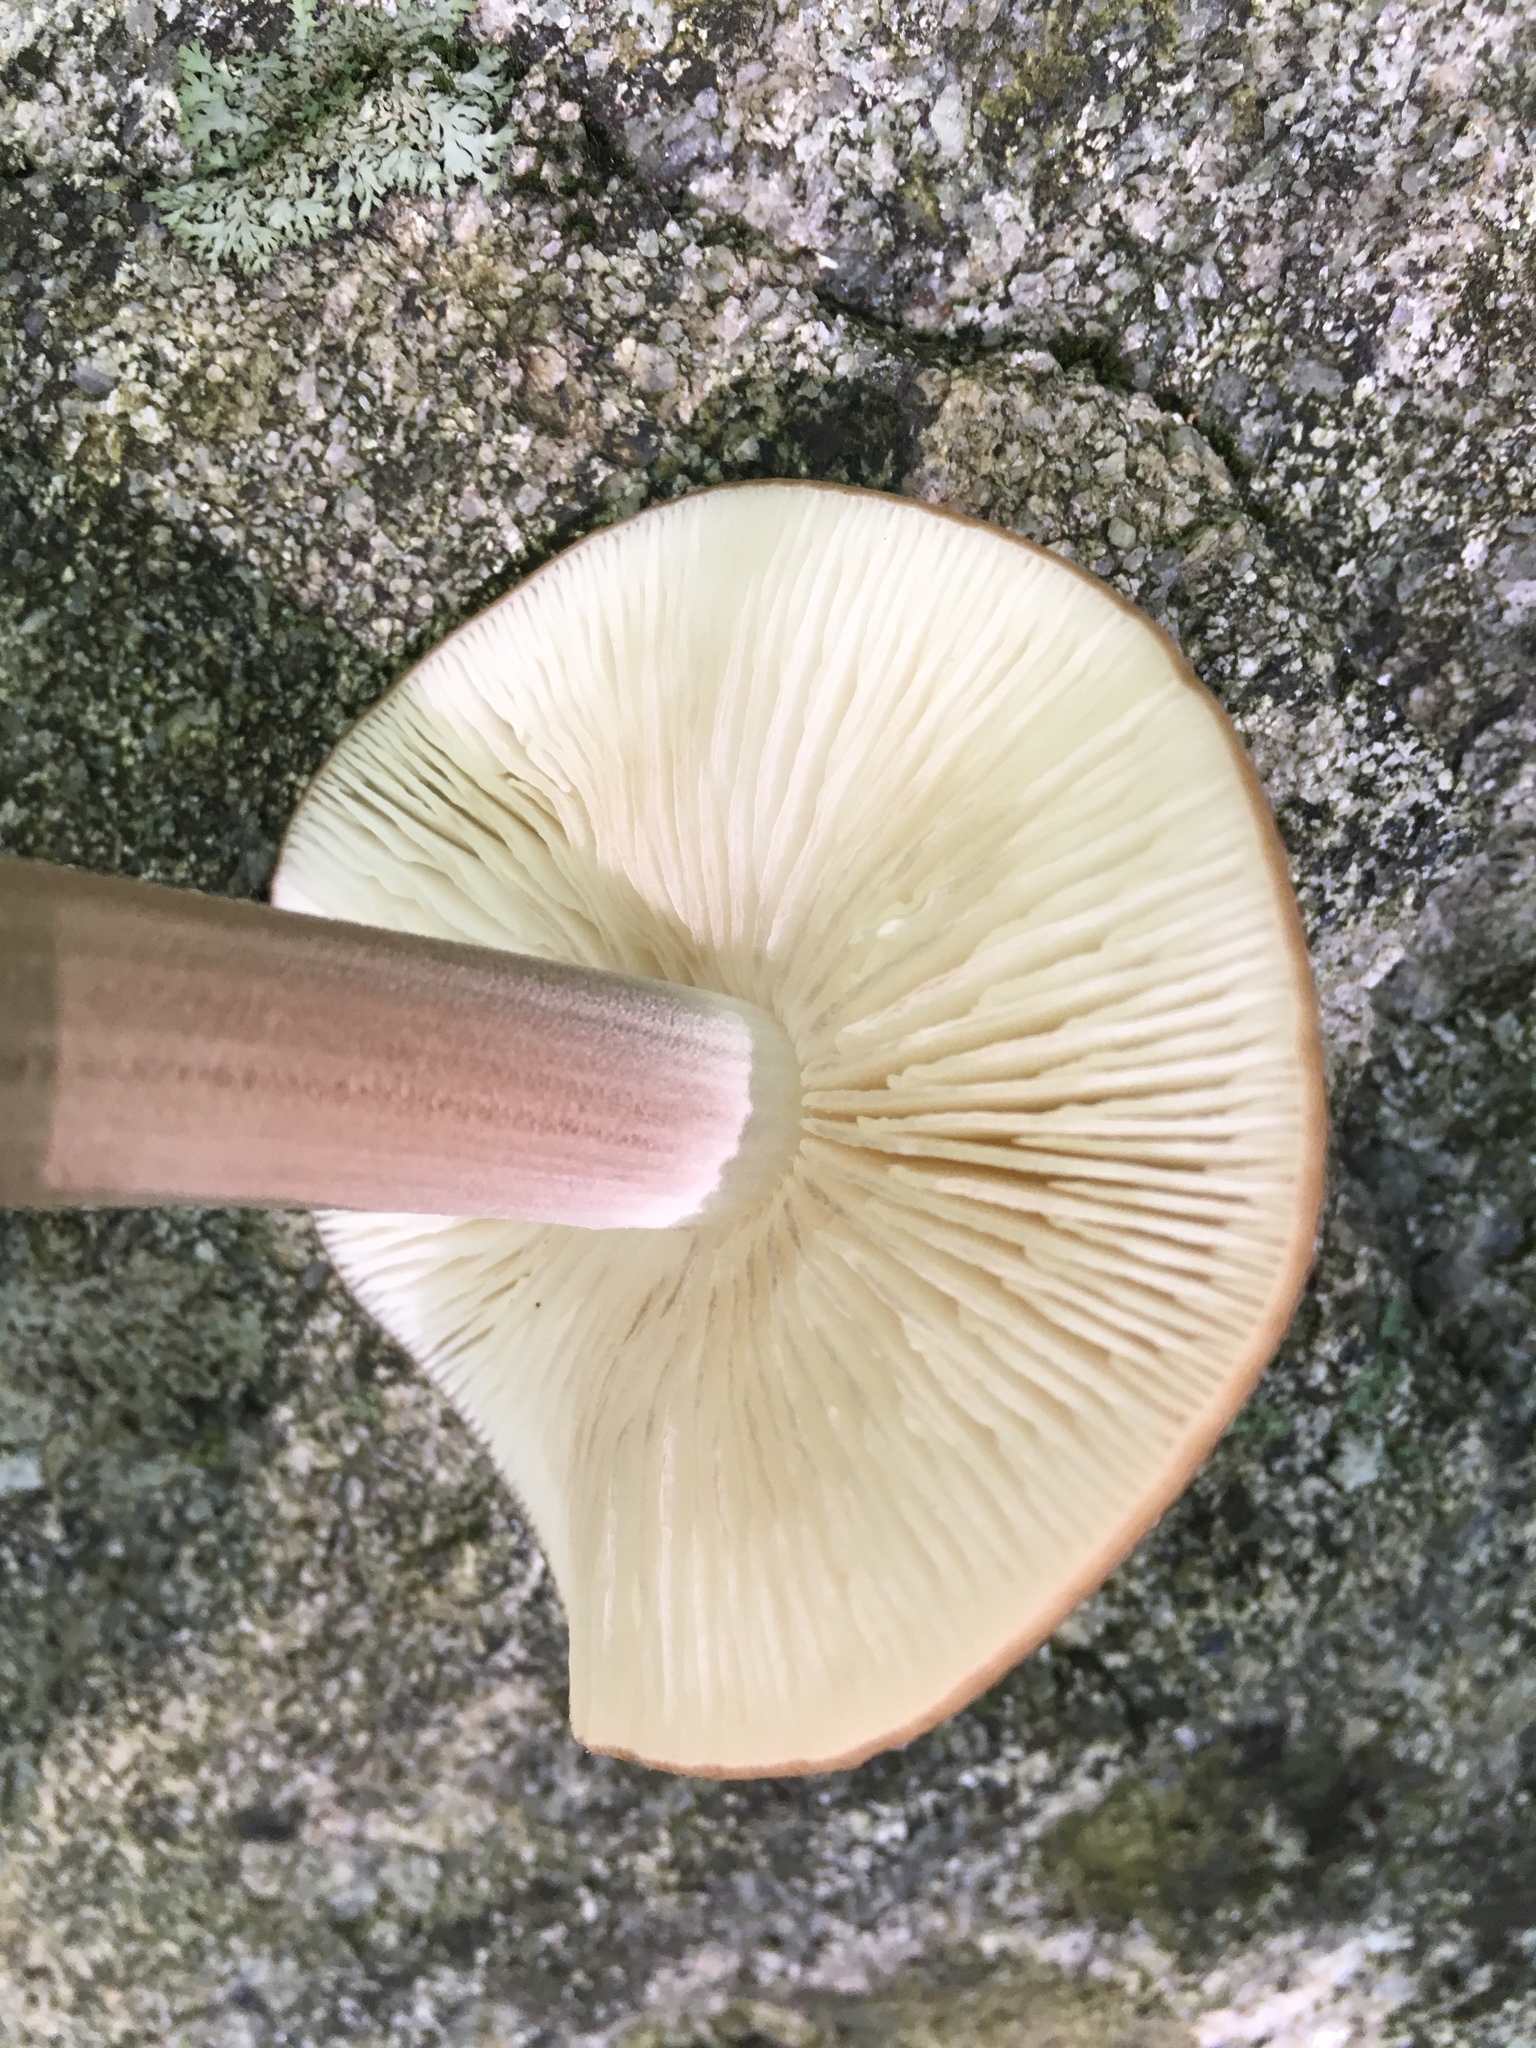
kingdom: Fungi
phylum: Basidiomycota
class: Agaricomycetes
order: Agaricales
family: Physalacriaceae
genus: Hymenopellis
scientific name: Hymenopellis radicata
